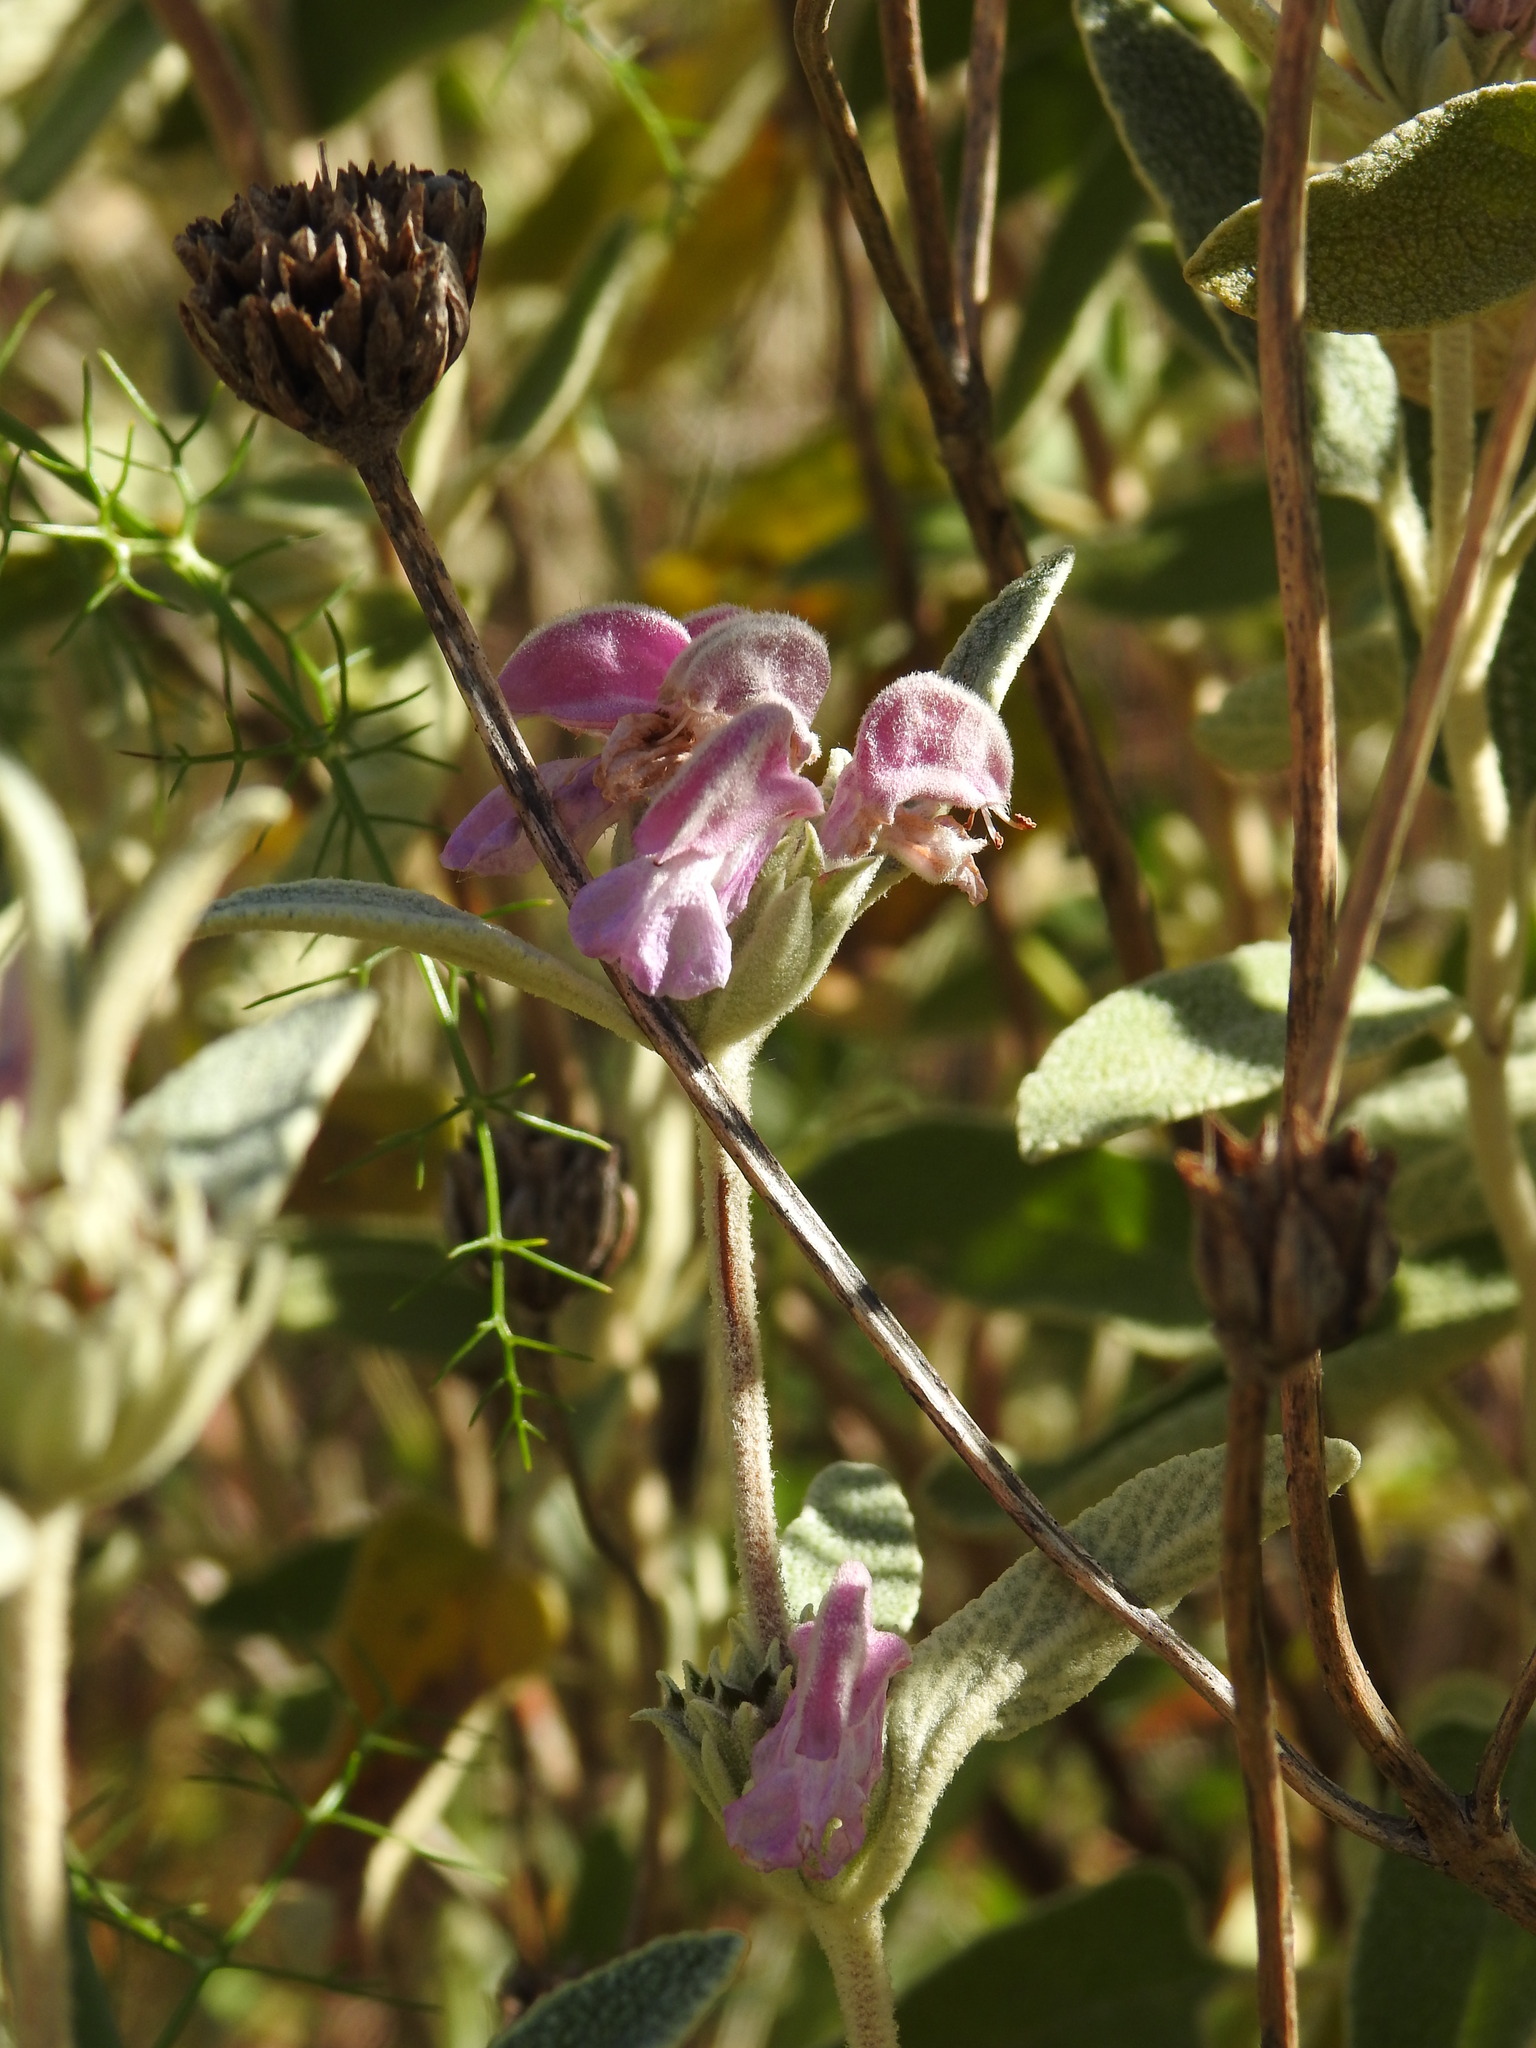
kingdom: Plantae
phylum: Tracheophyta
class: Magnoliopsida
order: Lamiales
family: Lamiaceae
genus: Phlomis
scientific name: Phlomis purpurea
